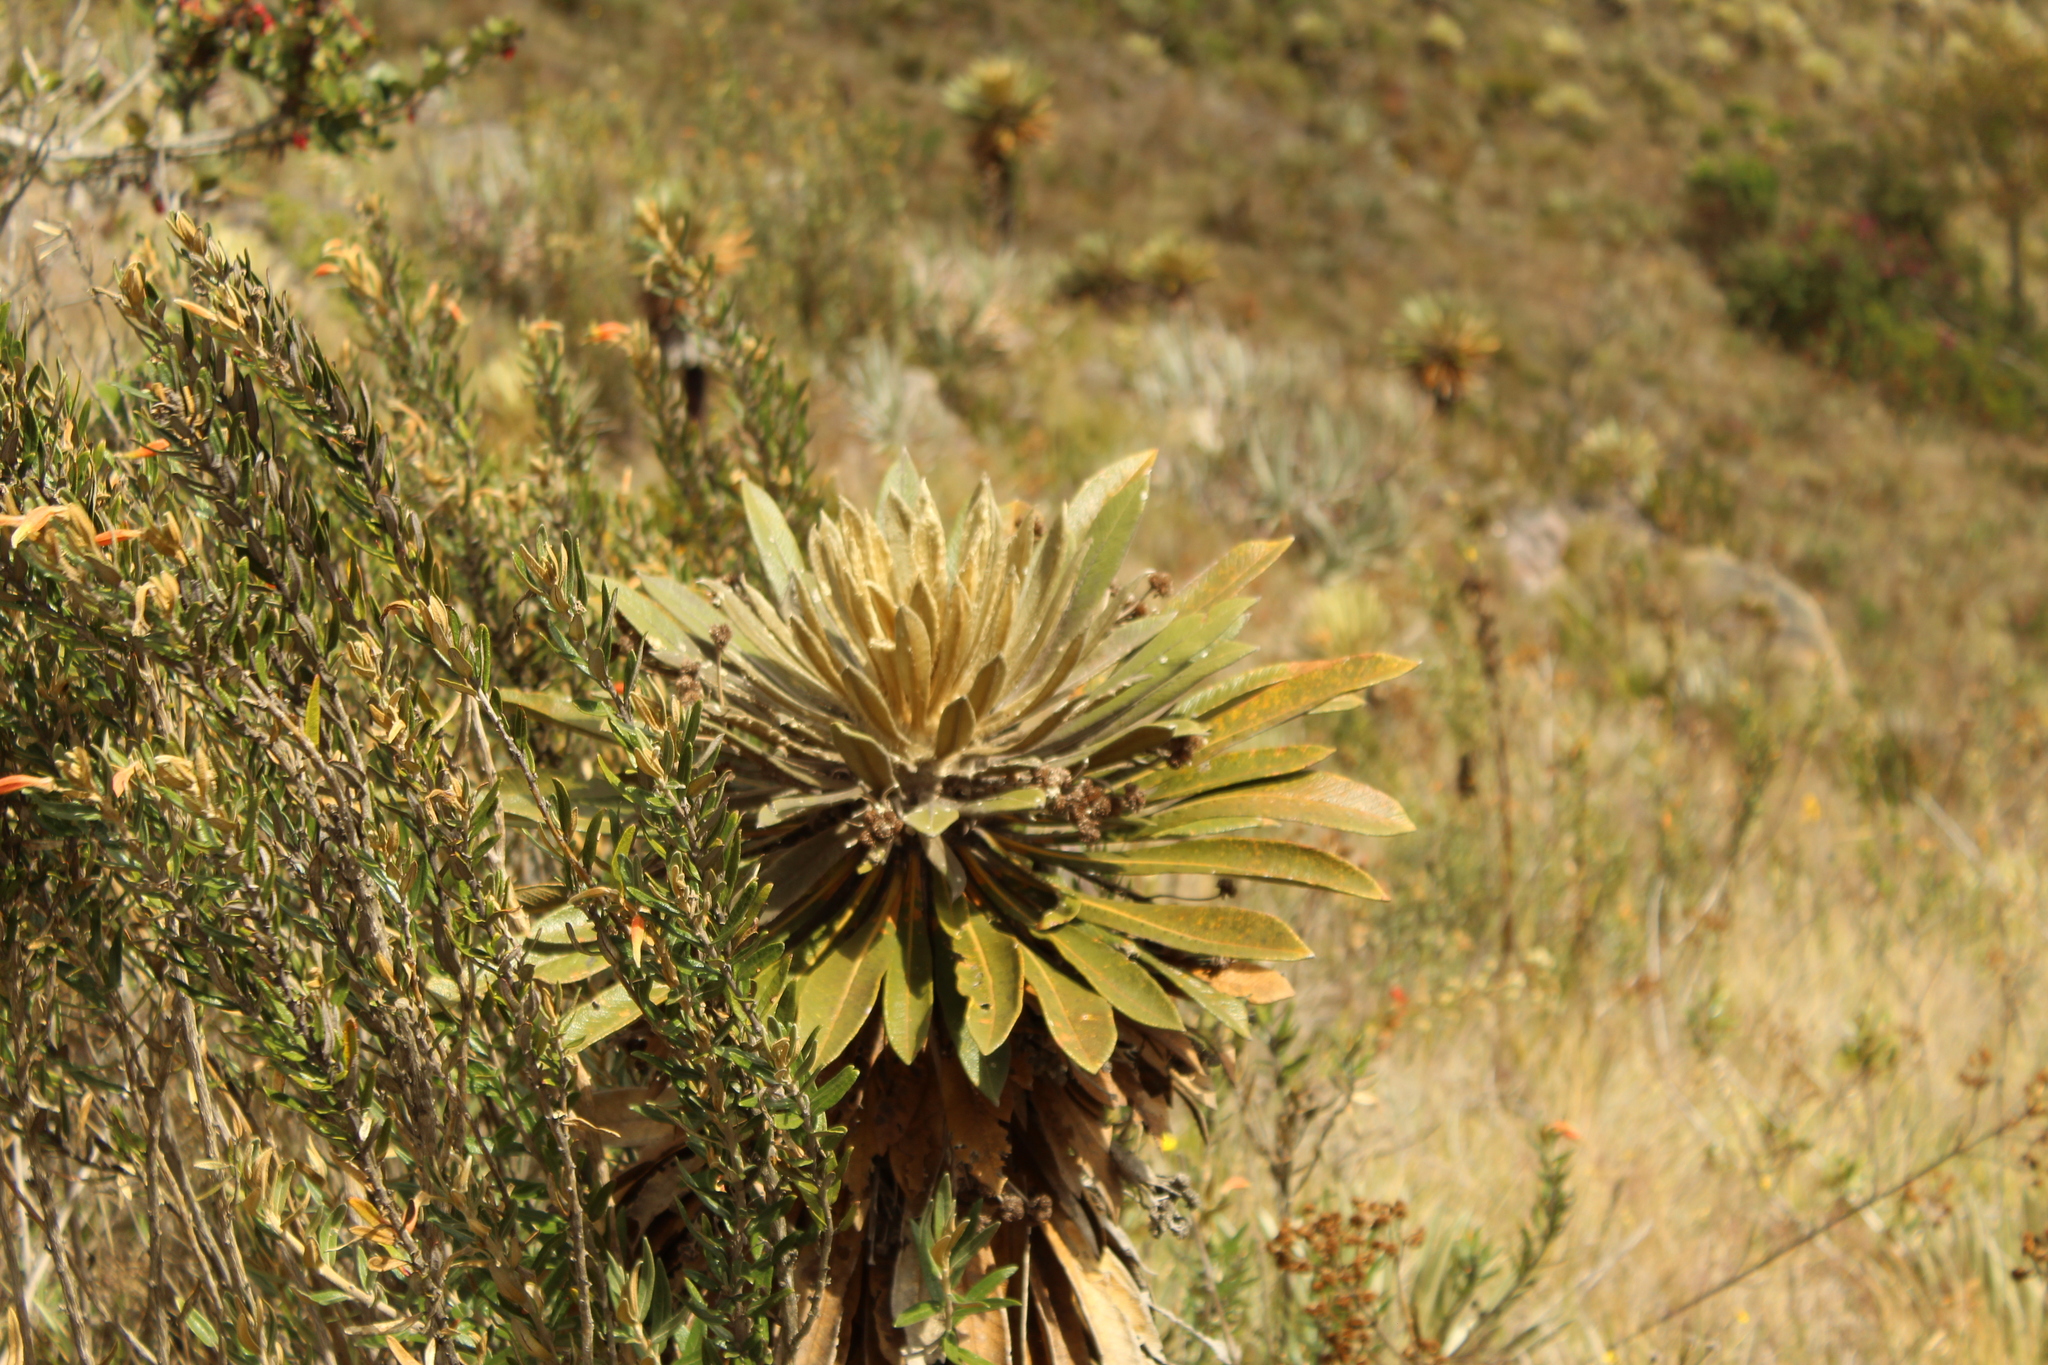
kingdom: Plantae
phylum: Tracheophyta
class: Magnoliopsida
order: Asterales
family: Asteraceae
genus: Espeletia
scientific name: Espeletia guacharaca
